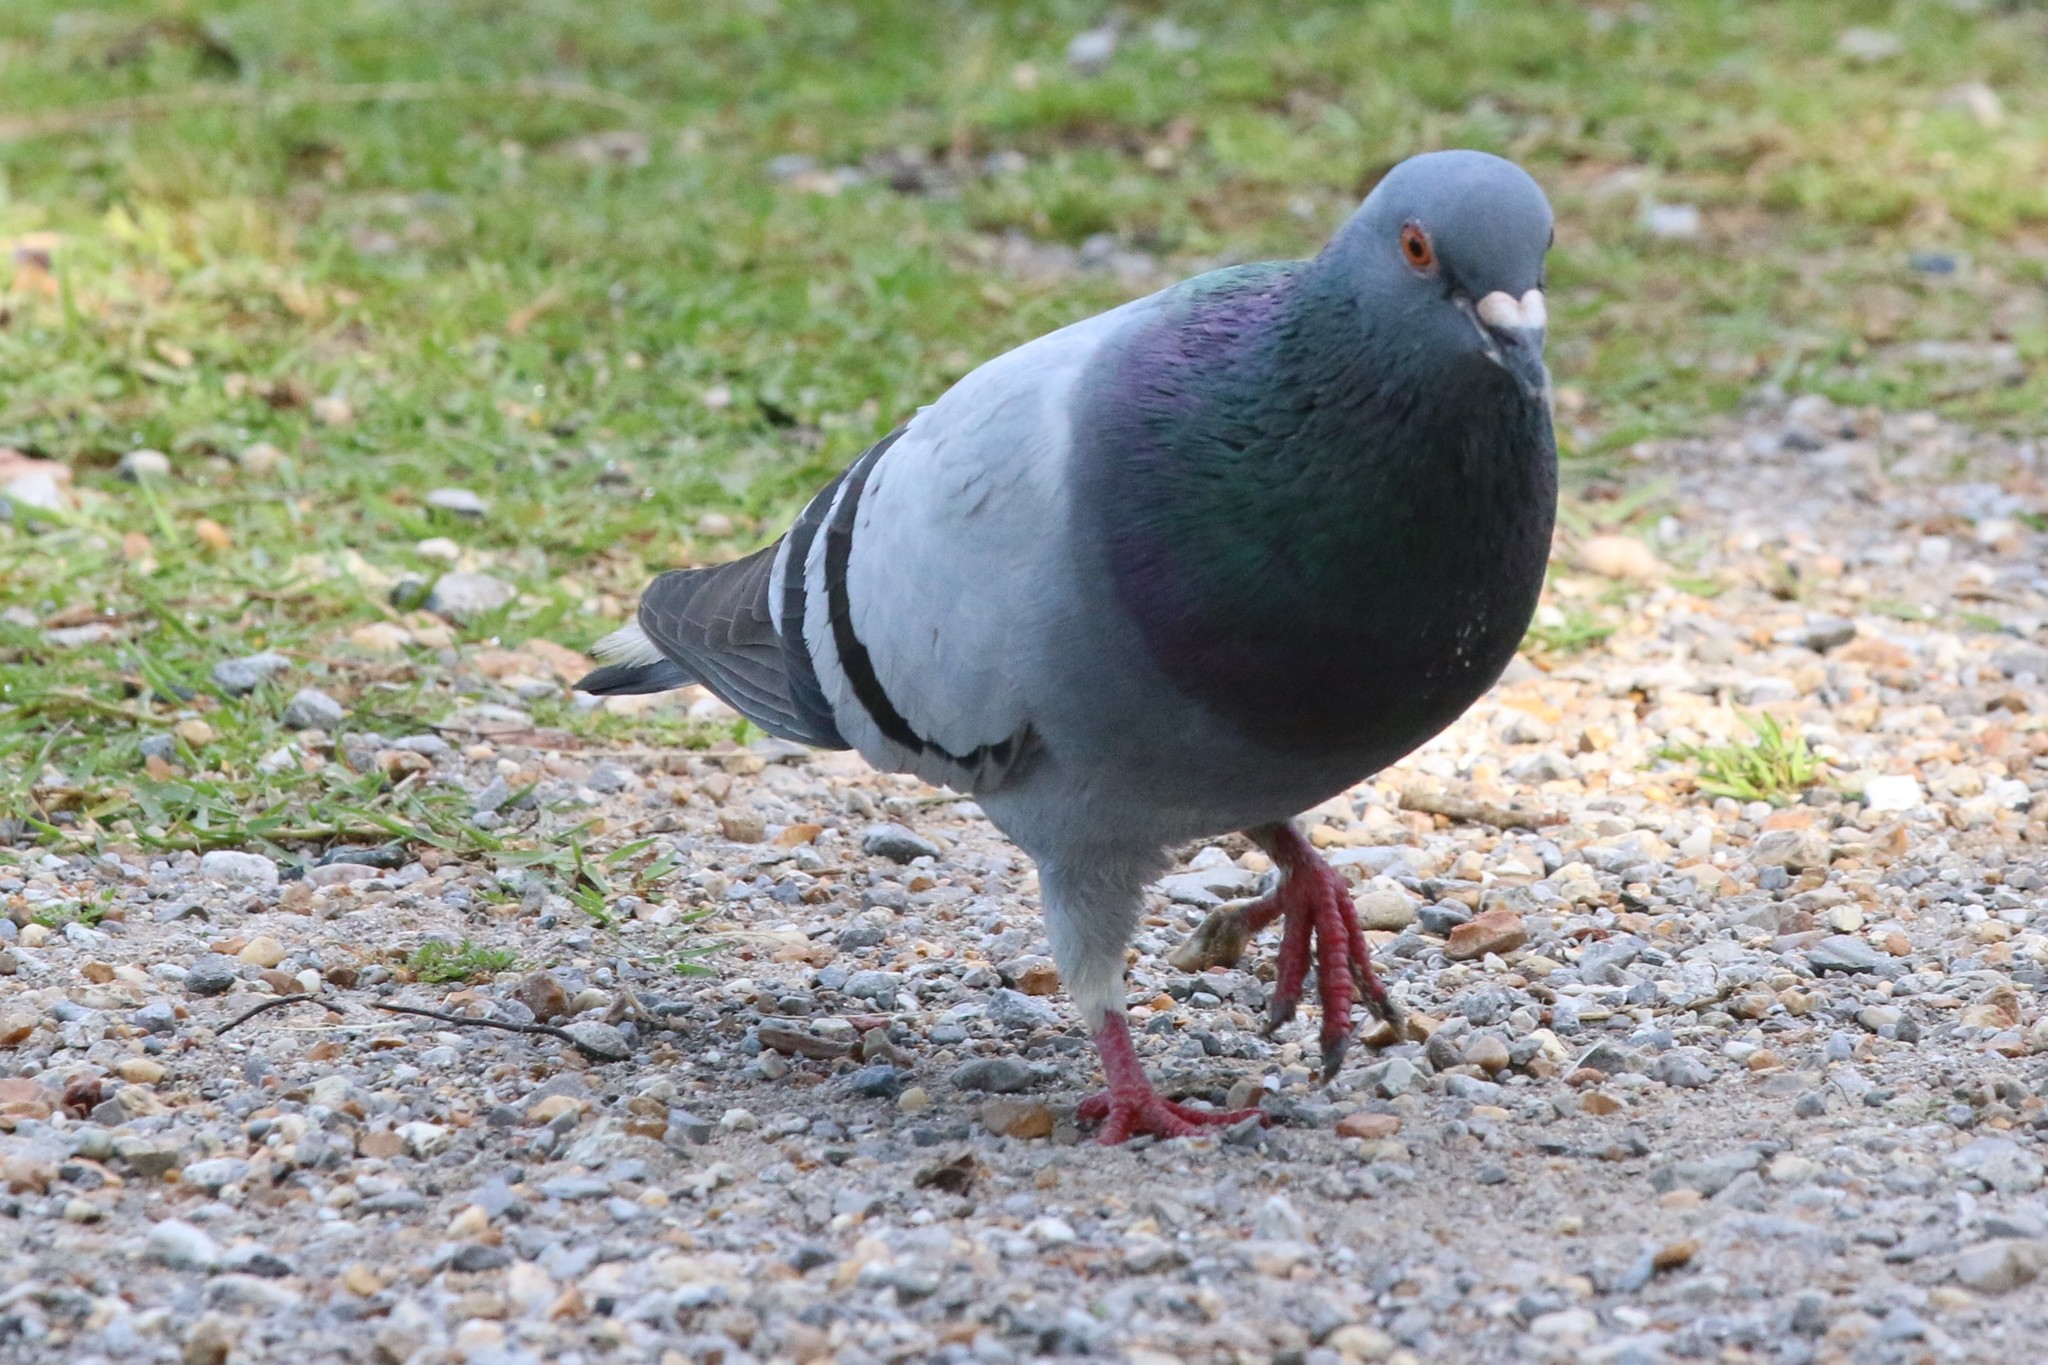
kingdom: Animalia
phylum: Chordata
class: Aves
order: Columbiformes
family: Columbidae
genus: Columba
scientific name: Columba livia
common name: Rock pigeon
